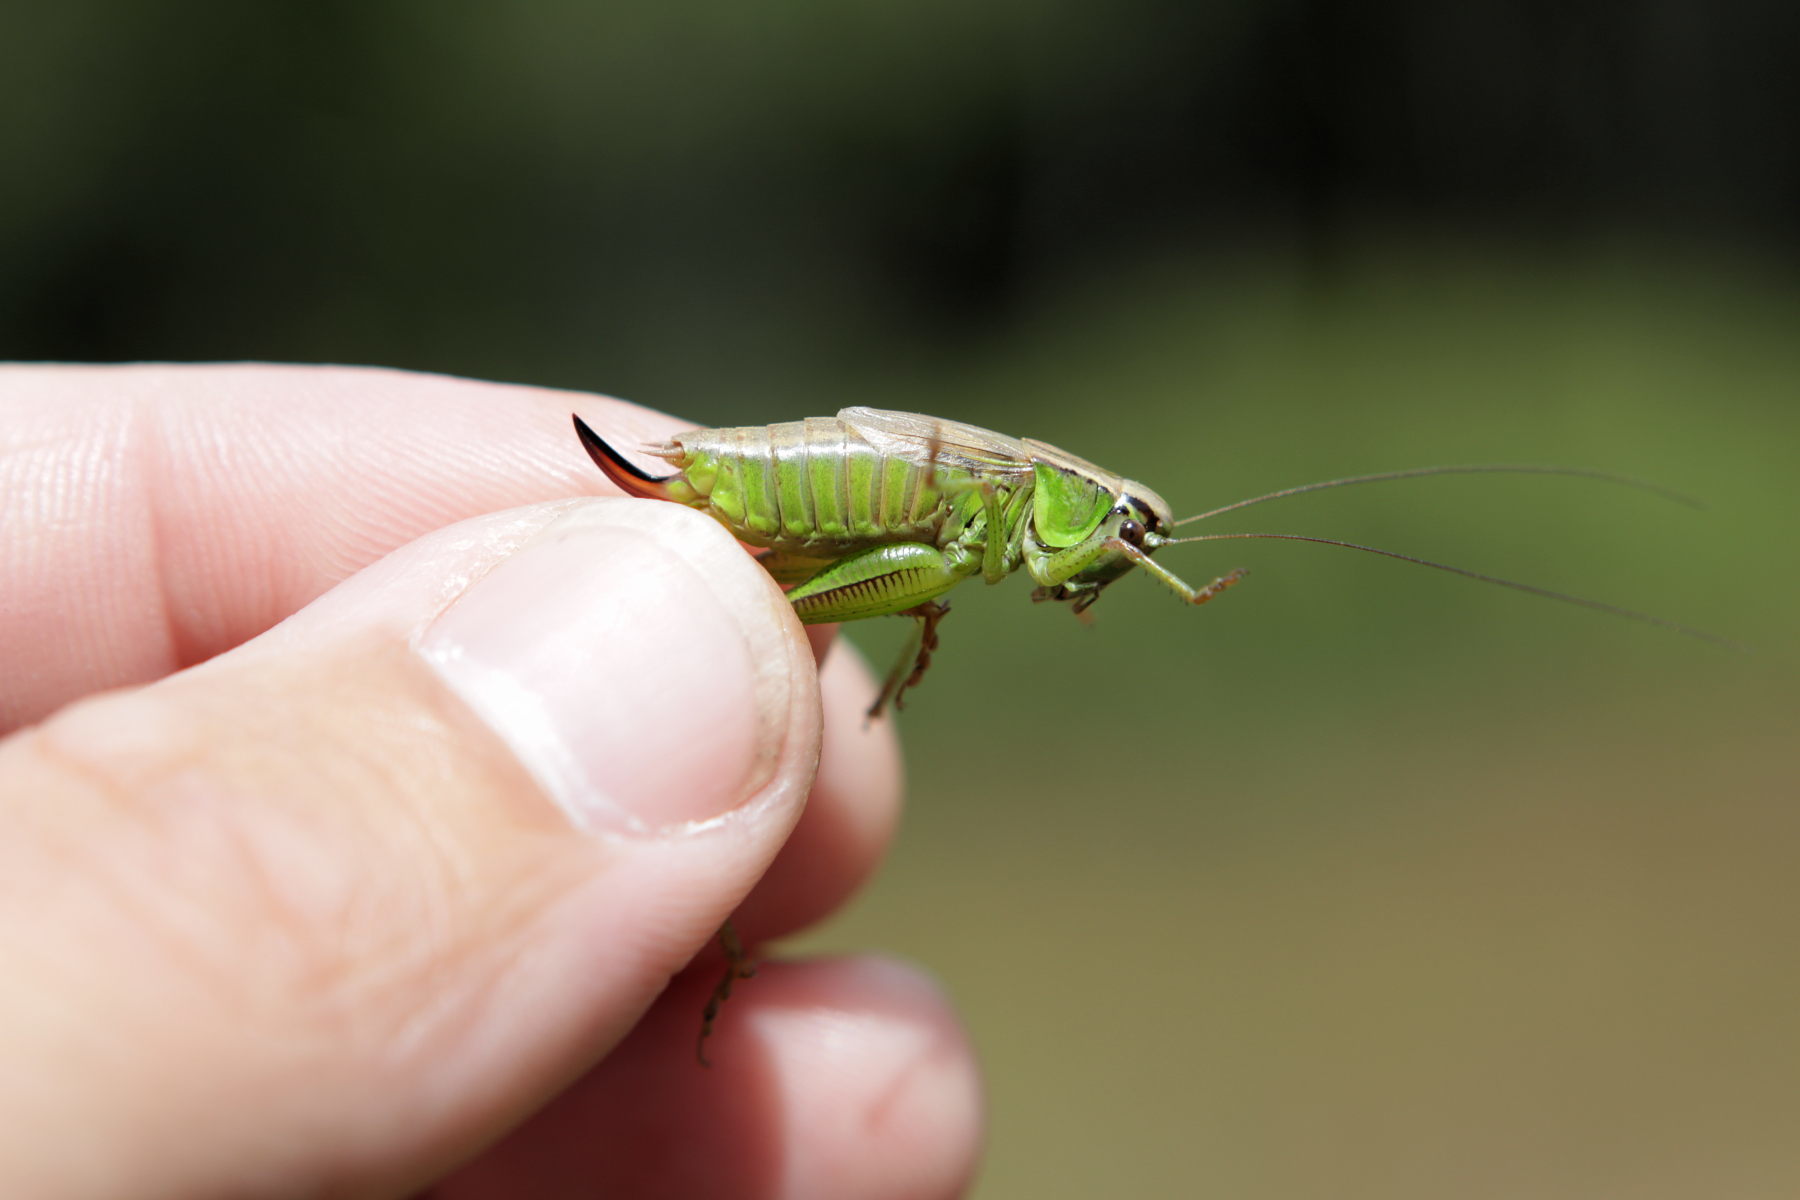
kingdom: Animalia
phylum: Arthropoda
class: Insecta
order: Orthoptera
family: Tettigoniidae
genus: Roeseliana
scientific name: Roeseliana roeselii
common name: Roesel's bush cricket
